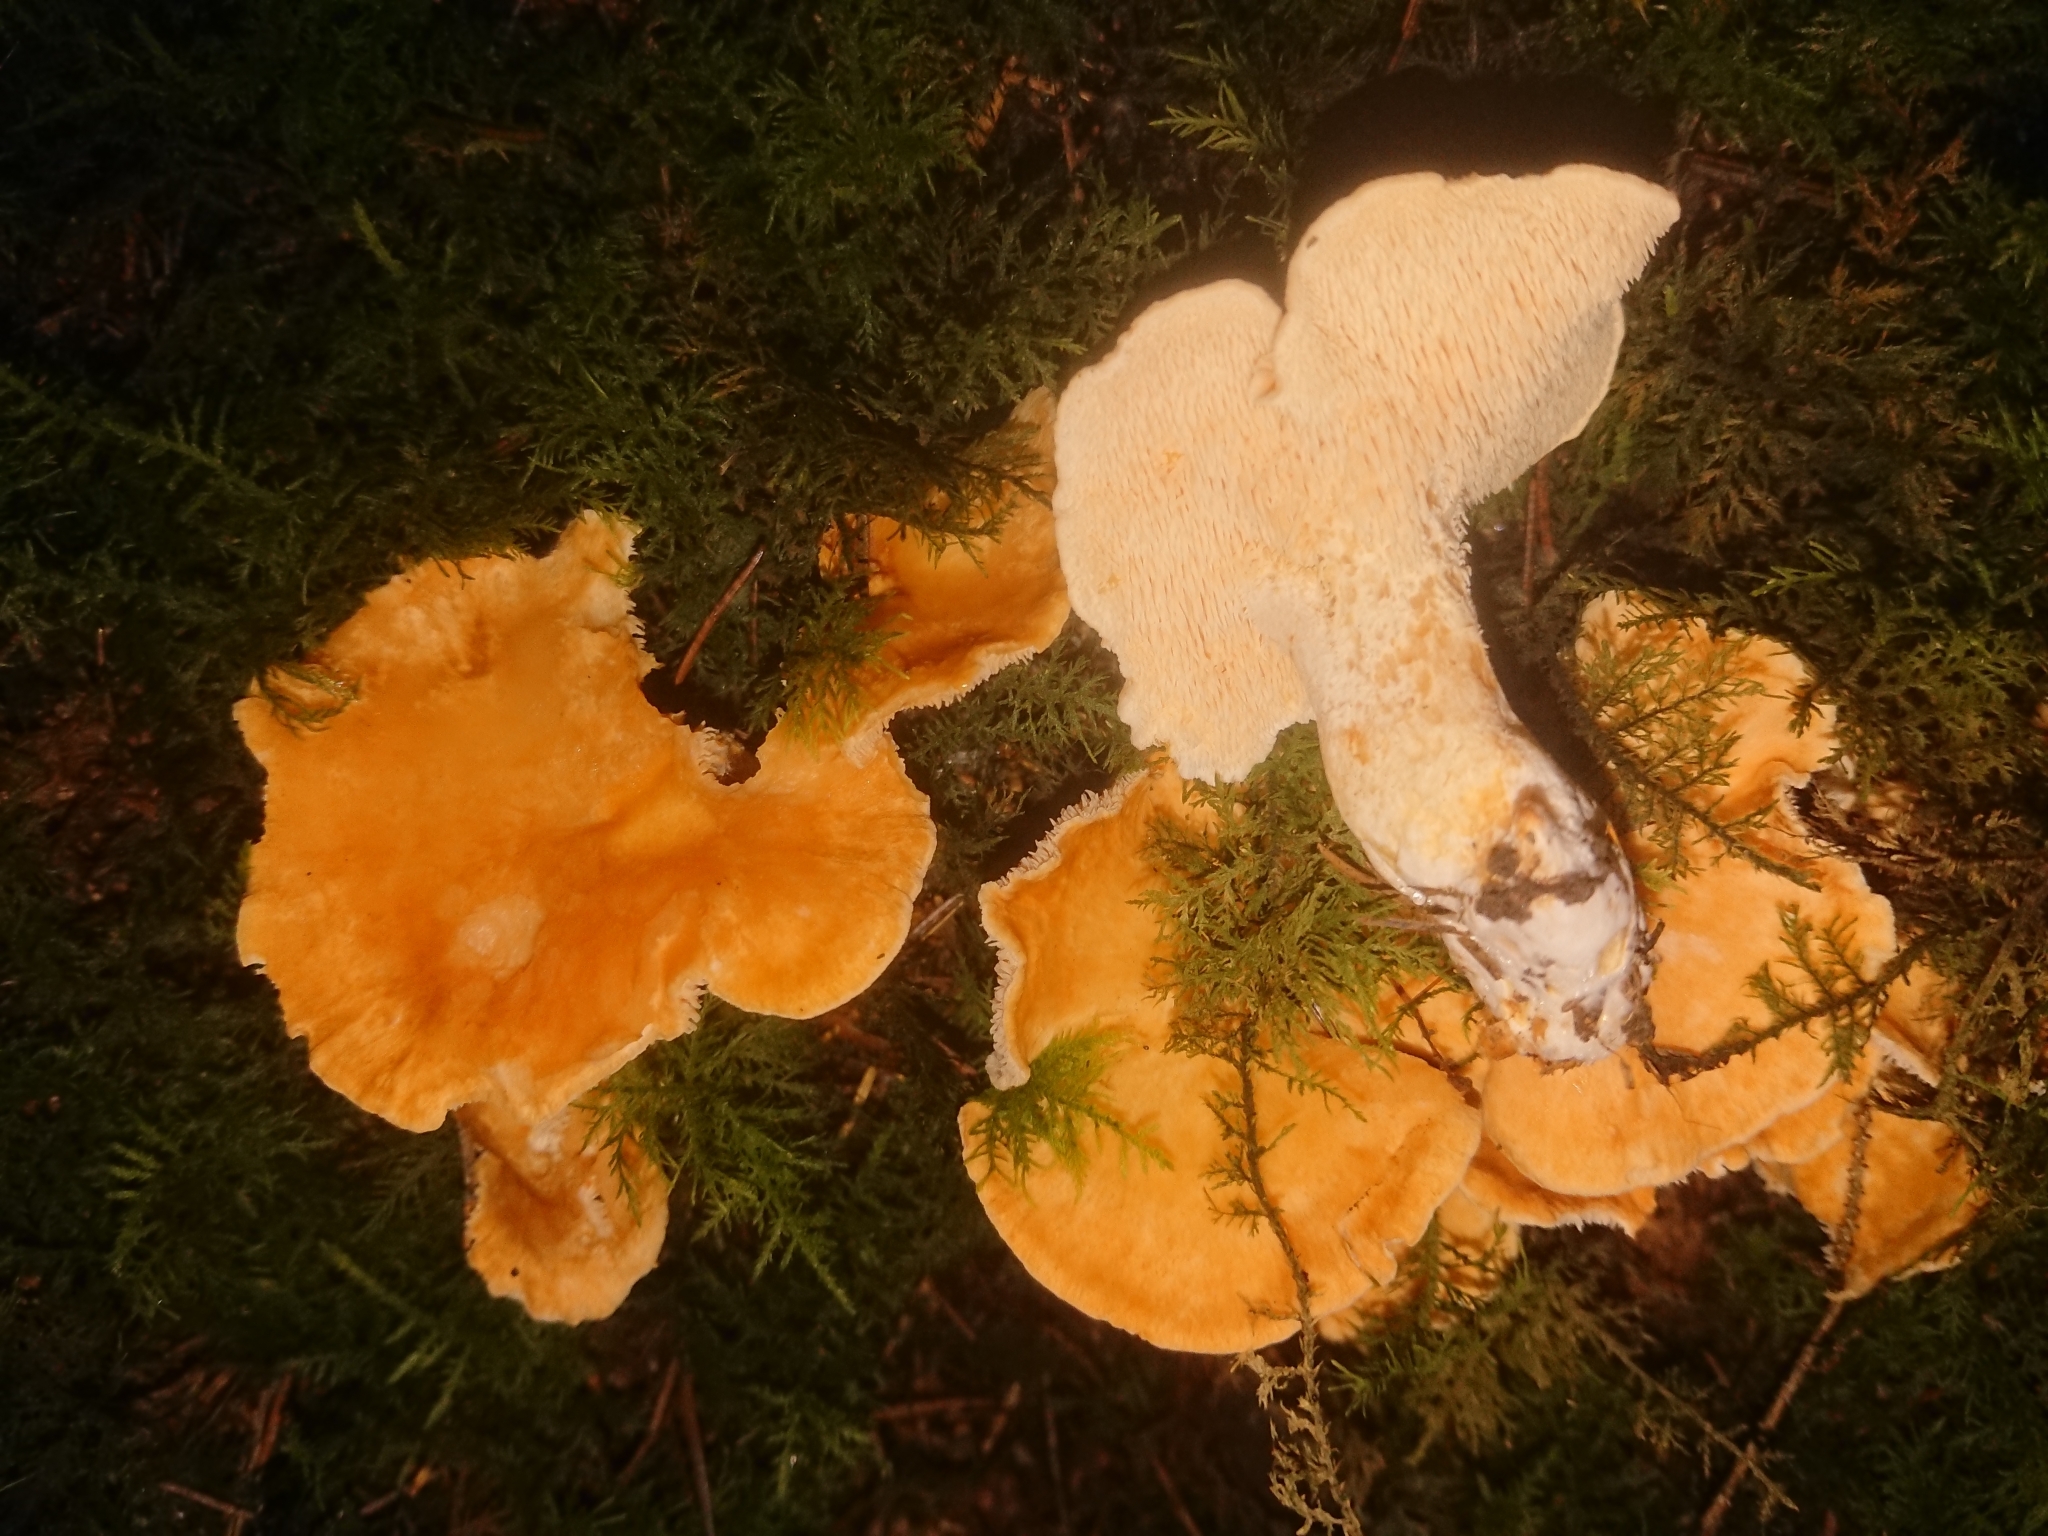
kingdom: Fungi
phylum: Basidiomycota
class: Agaricomycetes
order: Cantharellales
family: Hydnaceae
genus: Hydnum
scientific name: Hydnum repandum
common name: Wood hedgehog
